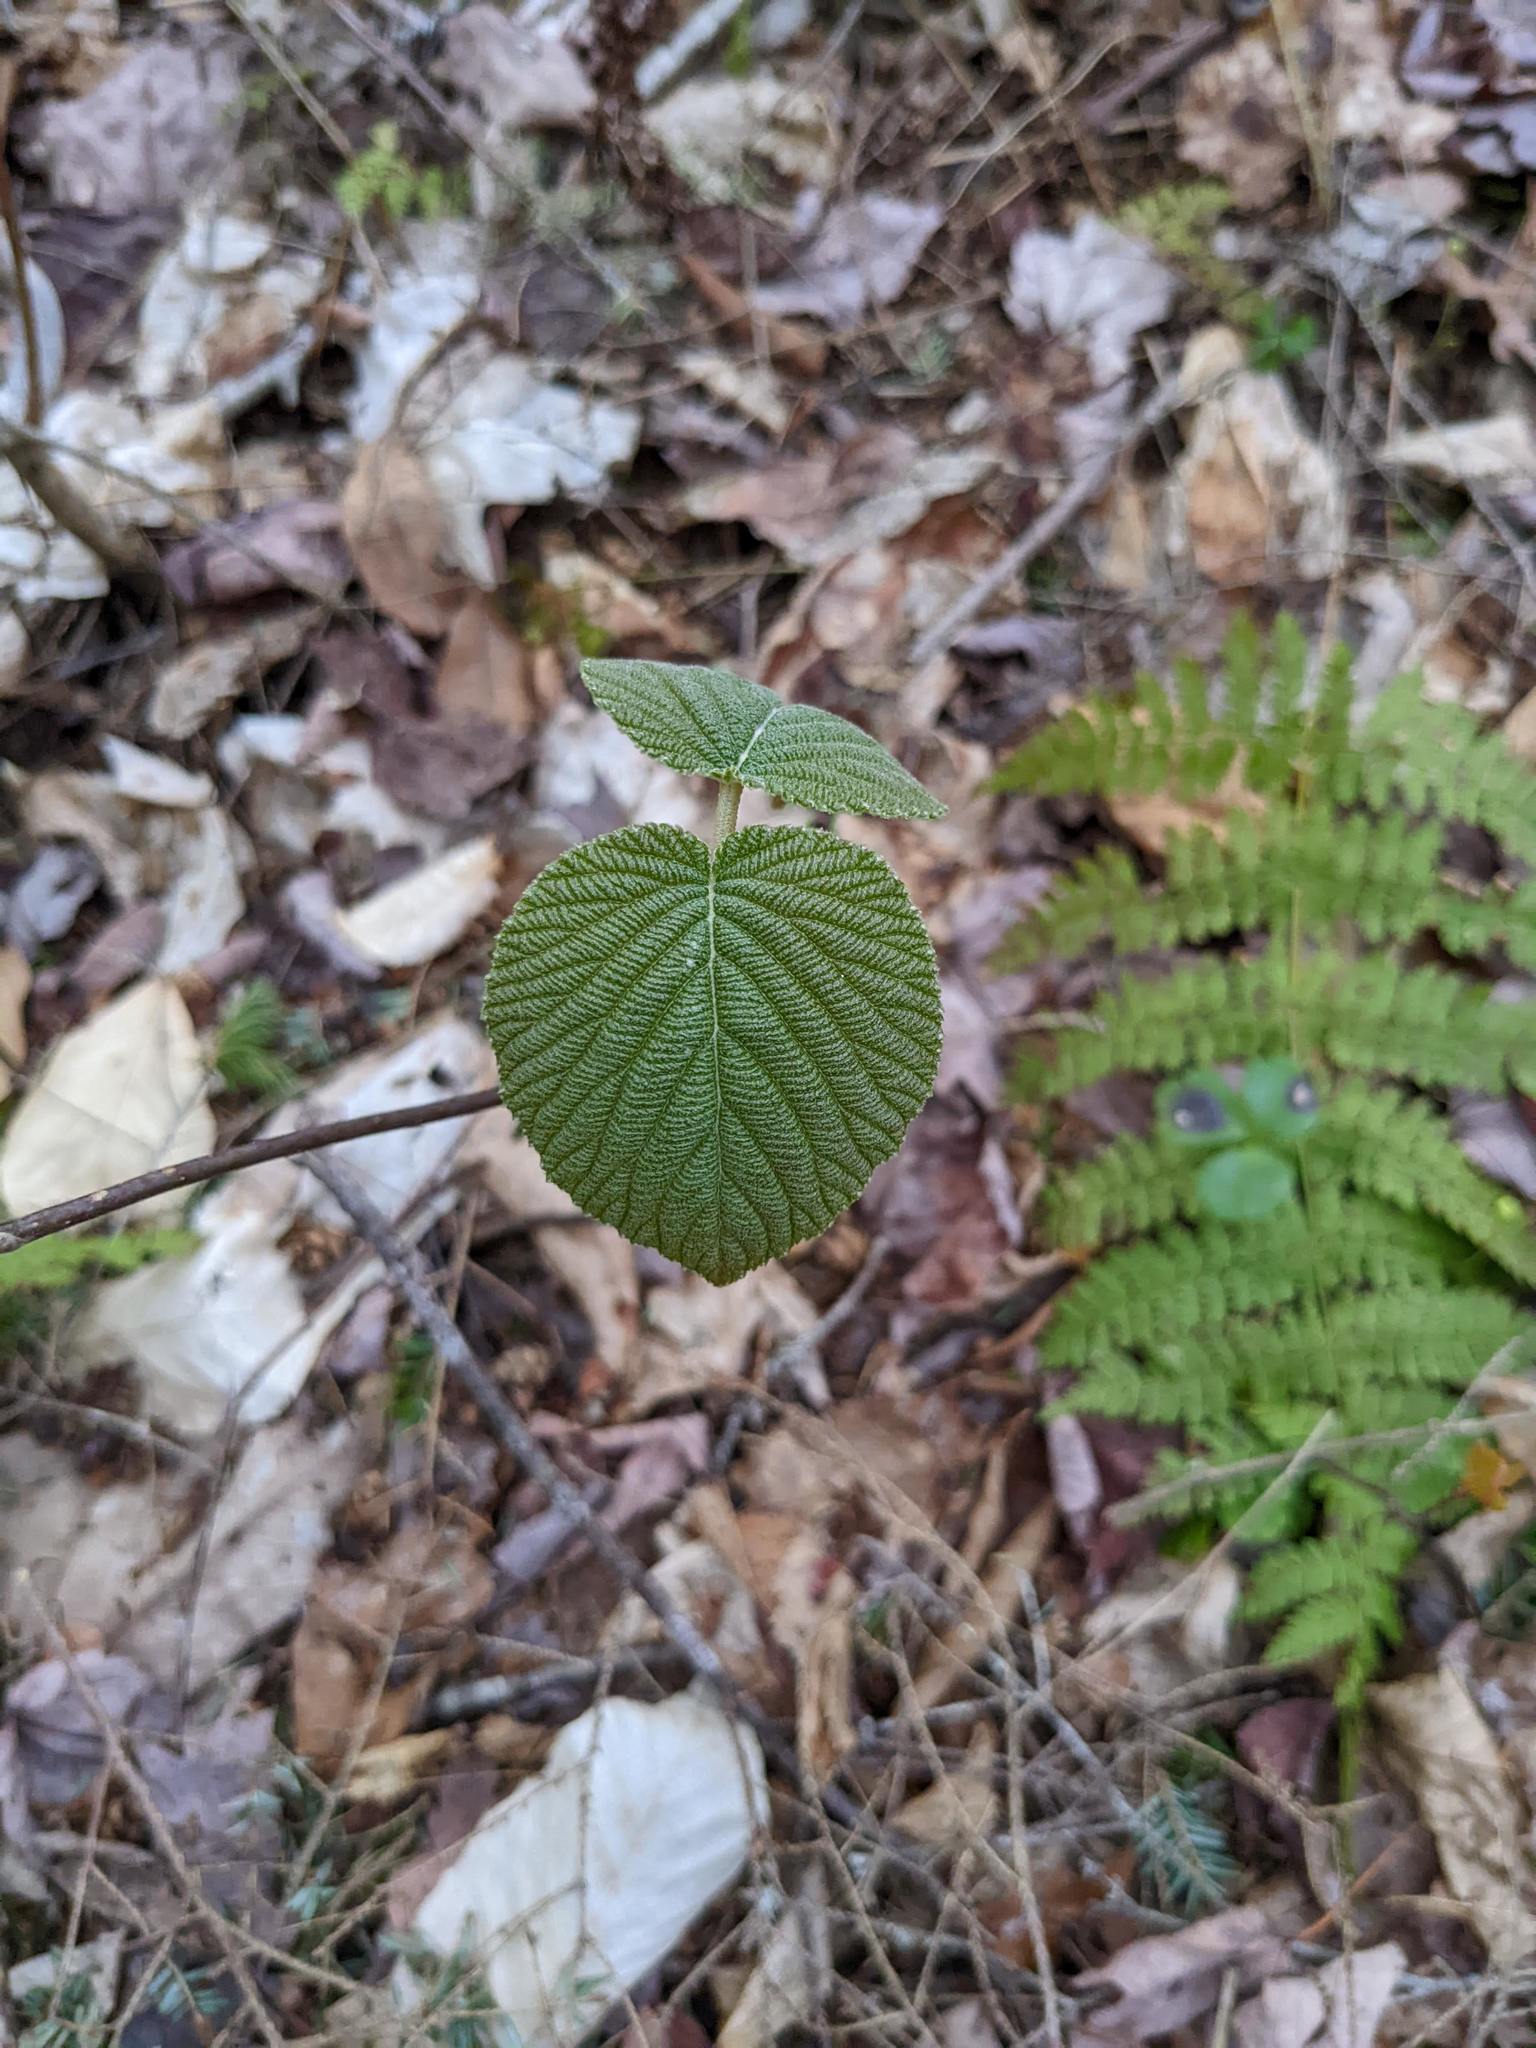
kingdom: Plantae
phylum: Tracheophyta
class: Magnoliopsida
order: Dipsacales
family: Viburnaceae
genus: Viburnum
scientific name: Viburnum lantanoides
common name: Hobblebush
